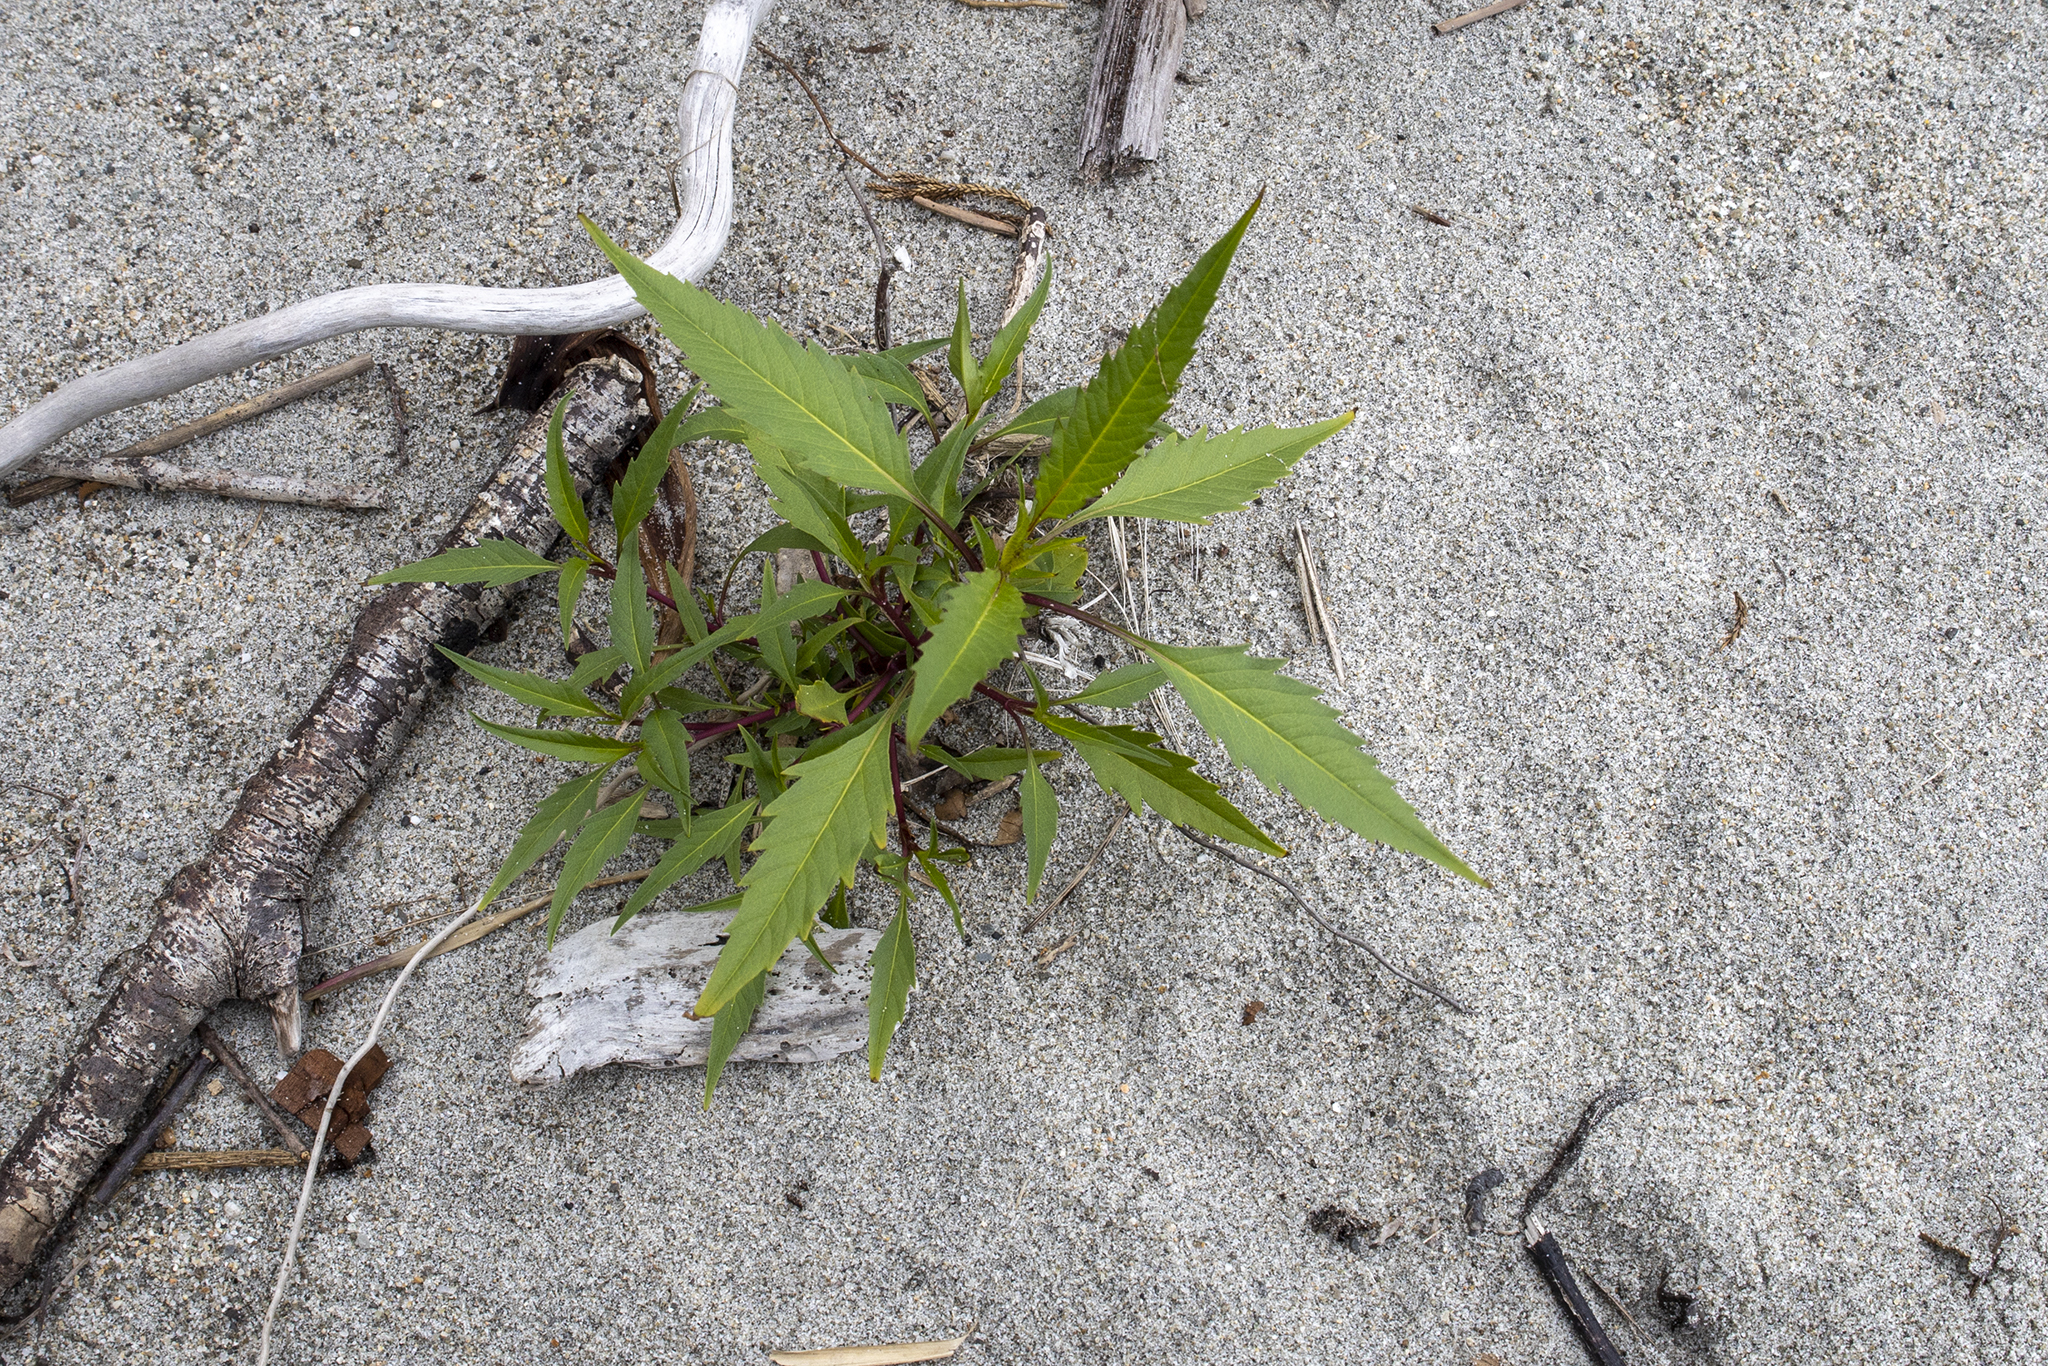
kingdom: Plantae
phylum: Tracheophyta
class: Magnoliopsida
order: Asterales
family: Asteraceae
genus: Bidens
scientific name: Bidens frondosa
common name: Beggarticks
